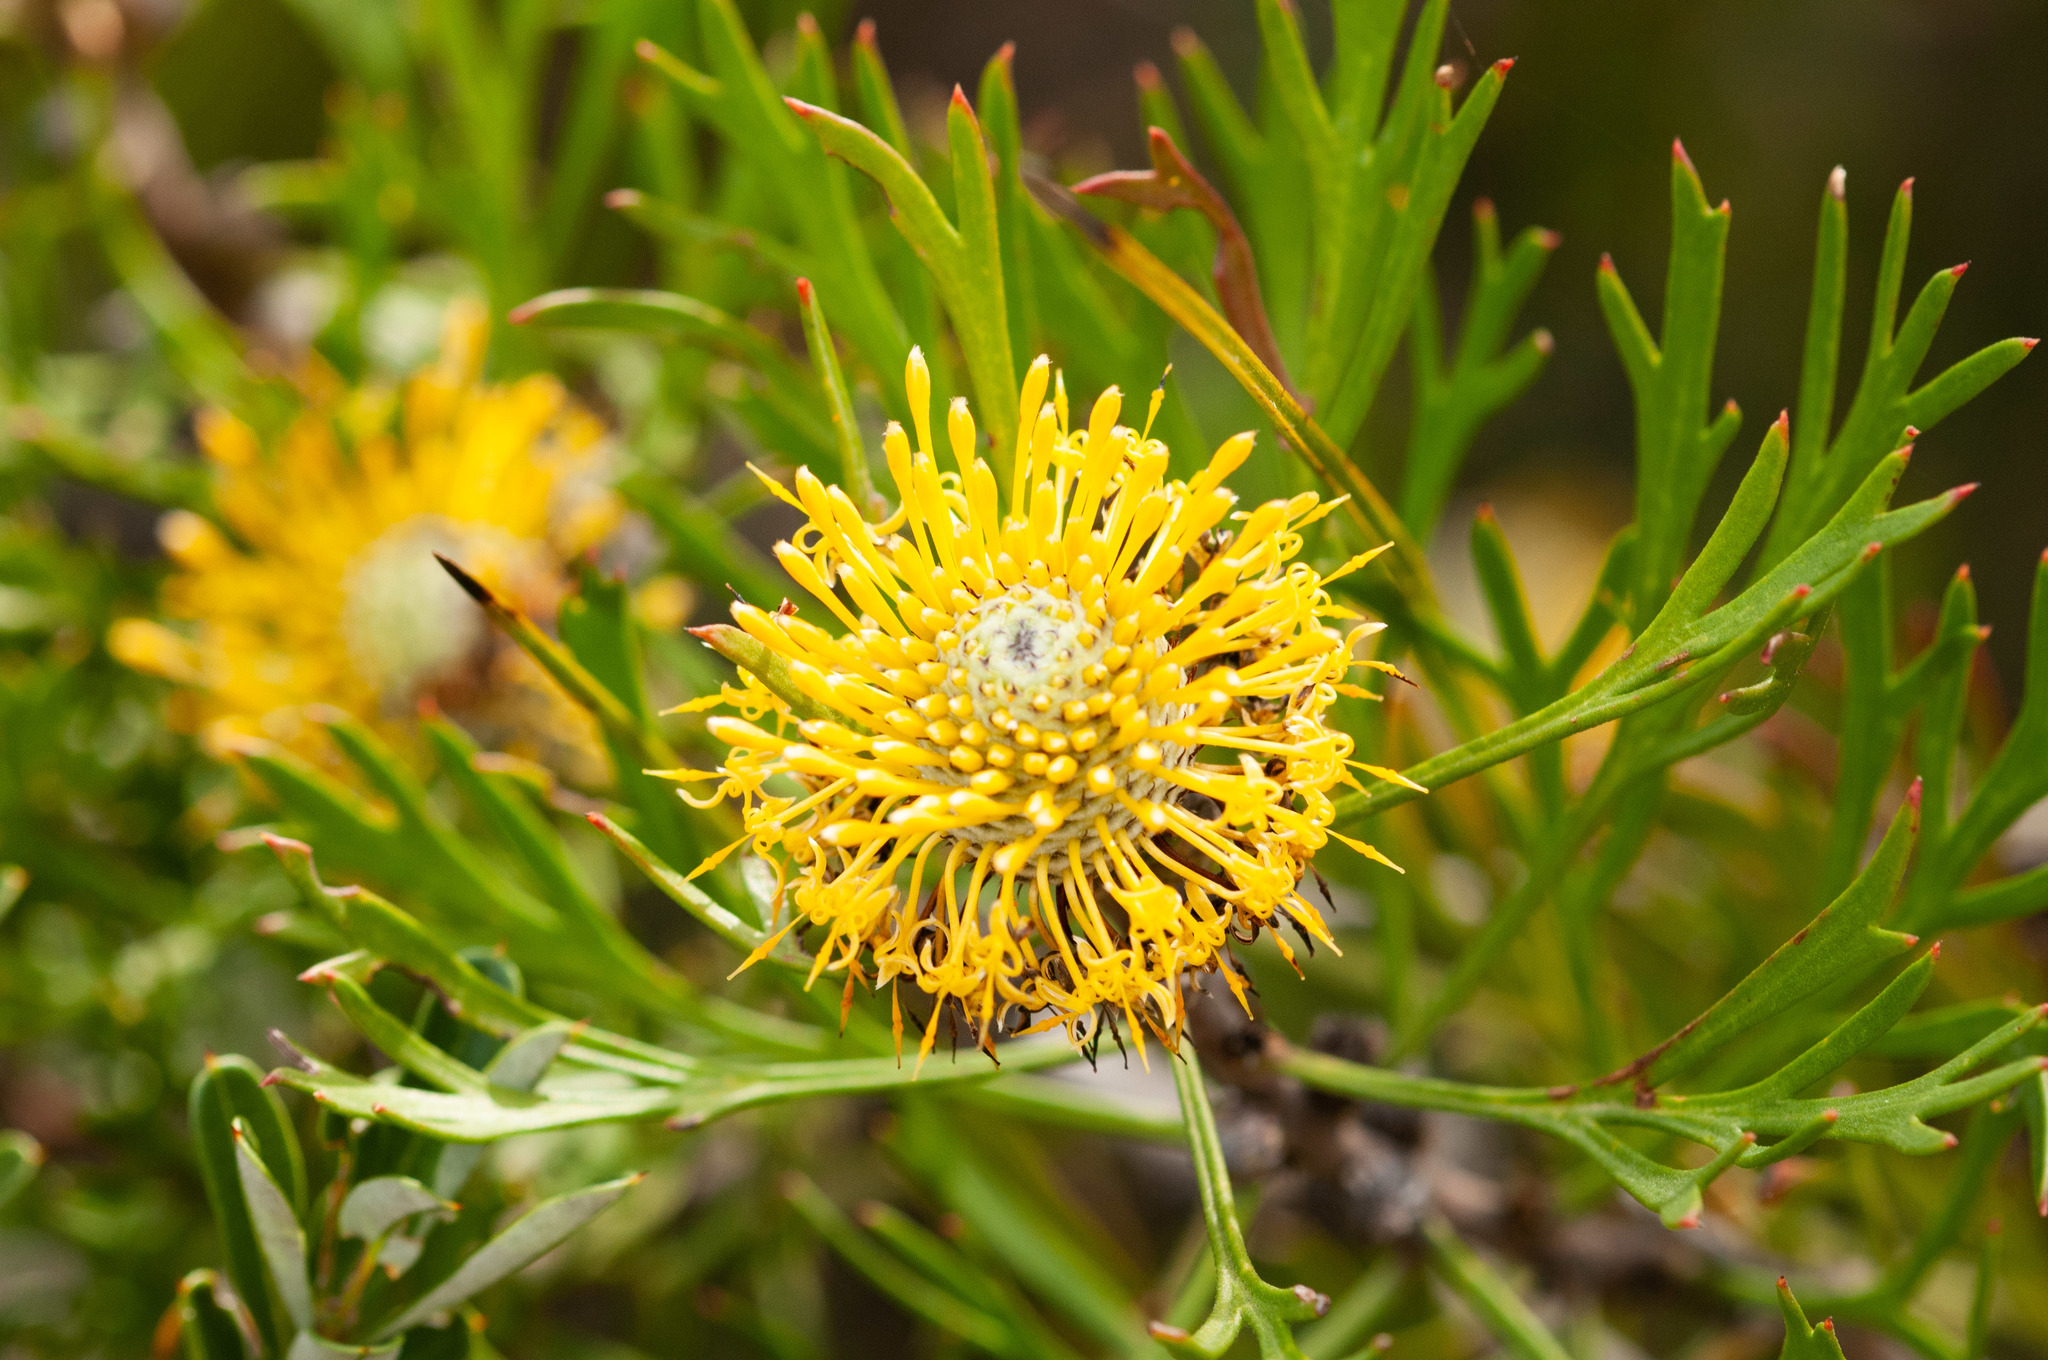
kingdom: Plantae
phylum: Tracheophyta
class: Magnoliopsida
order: Proteales
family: Proteaceae
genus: Isopogon
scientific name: Isopogon anemonifolius
